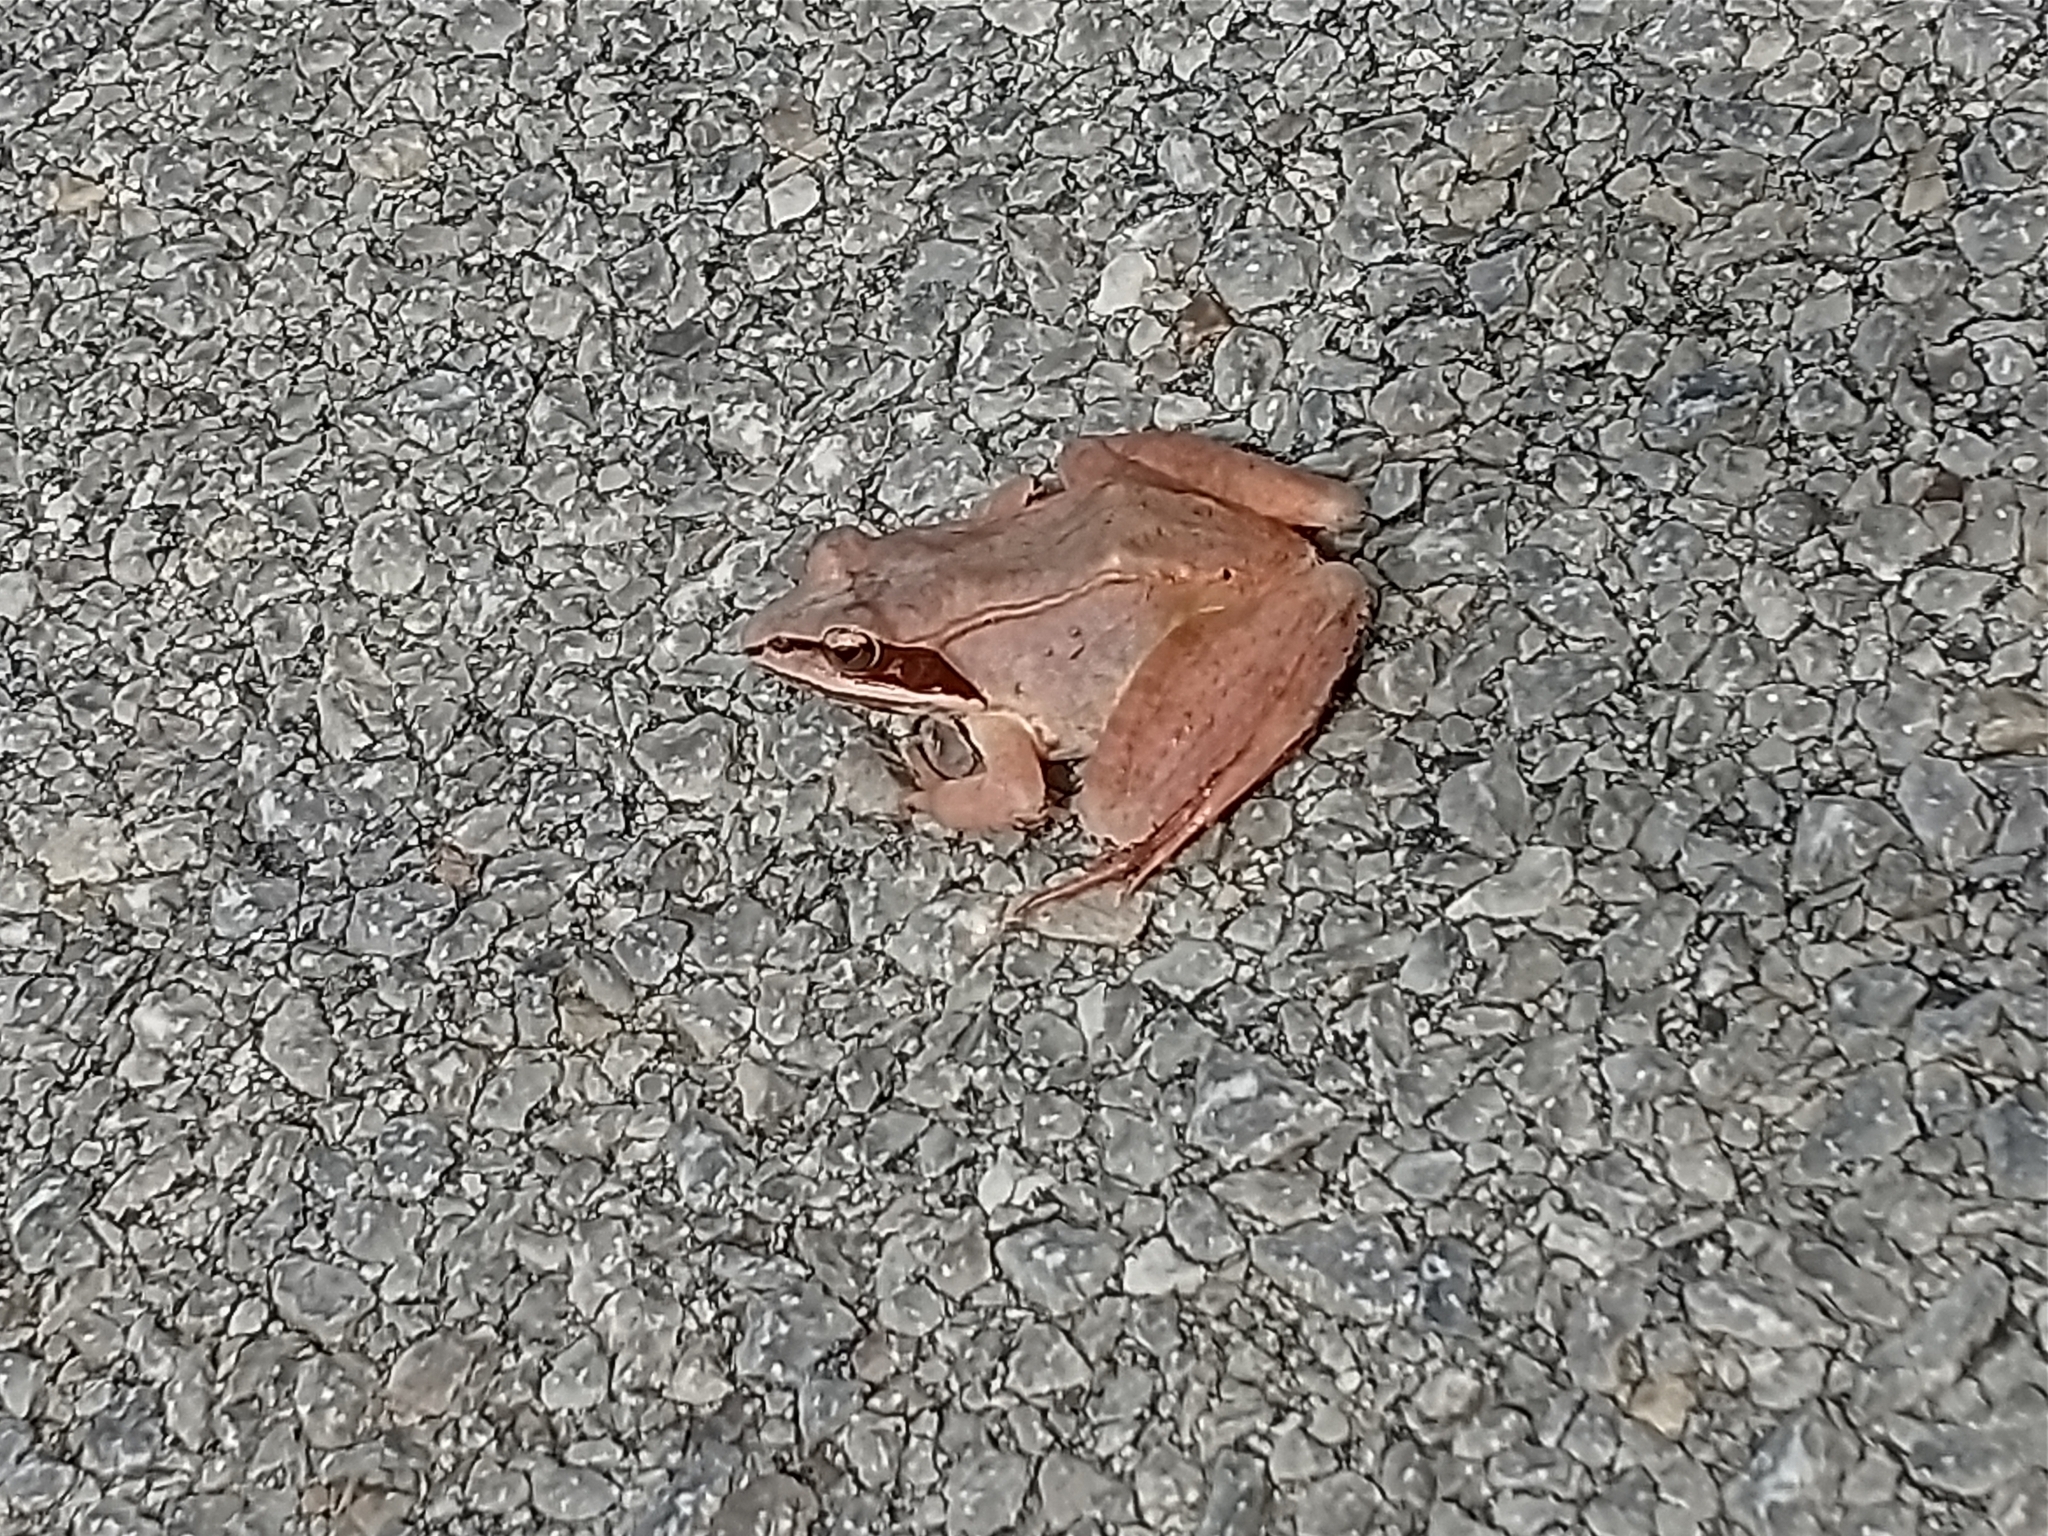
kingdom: Animalia
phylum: Chordata
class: Amphibia
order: Anura
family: Ranidae
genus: Lithobates
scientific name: Lithobates sylvaticus
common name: Wood frog
